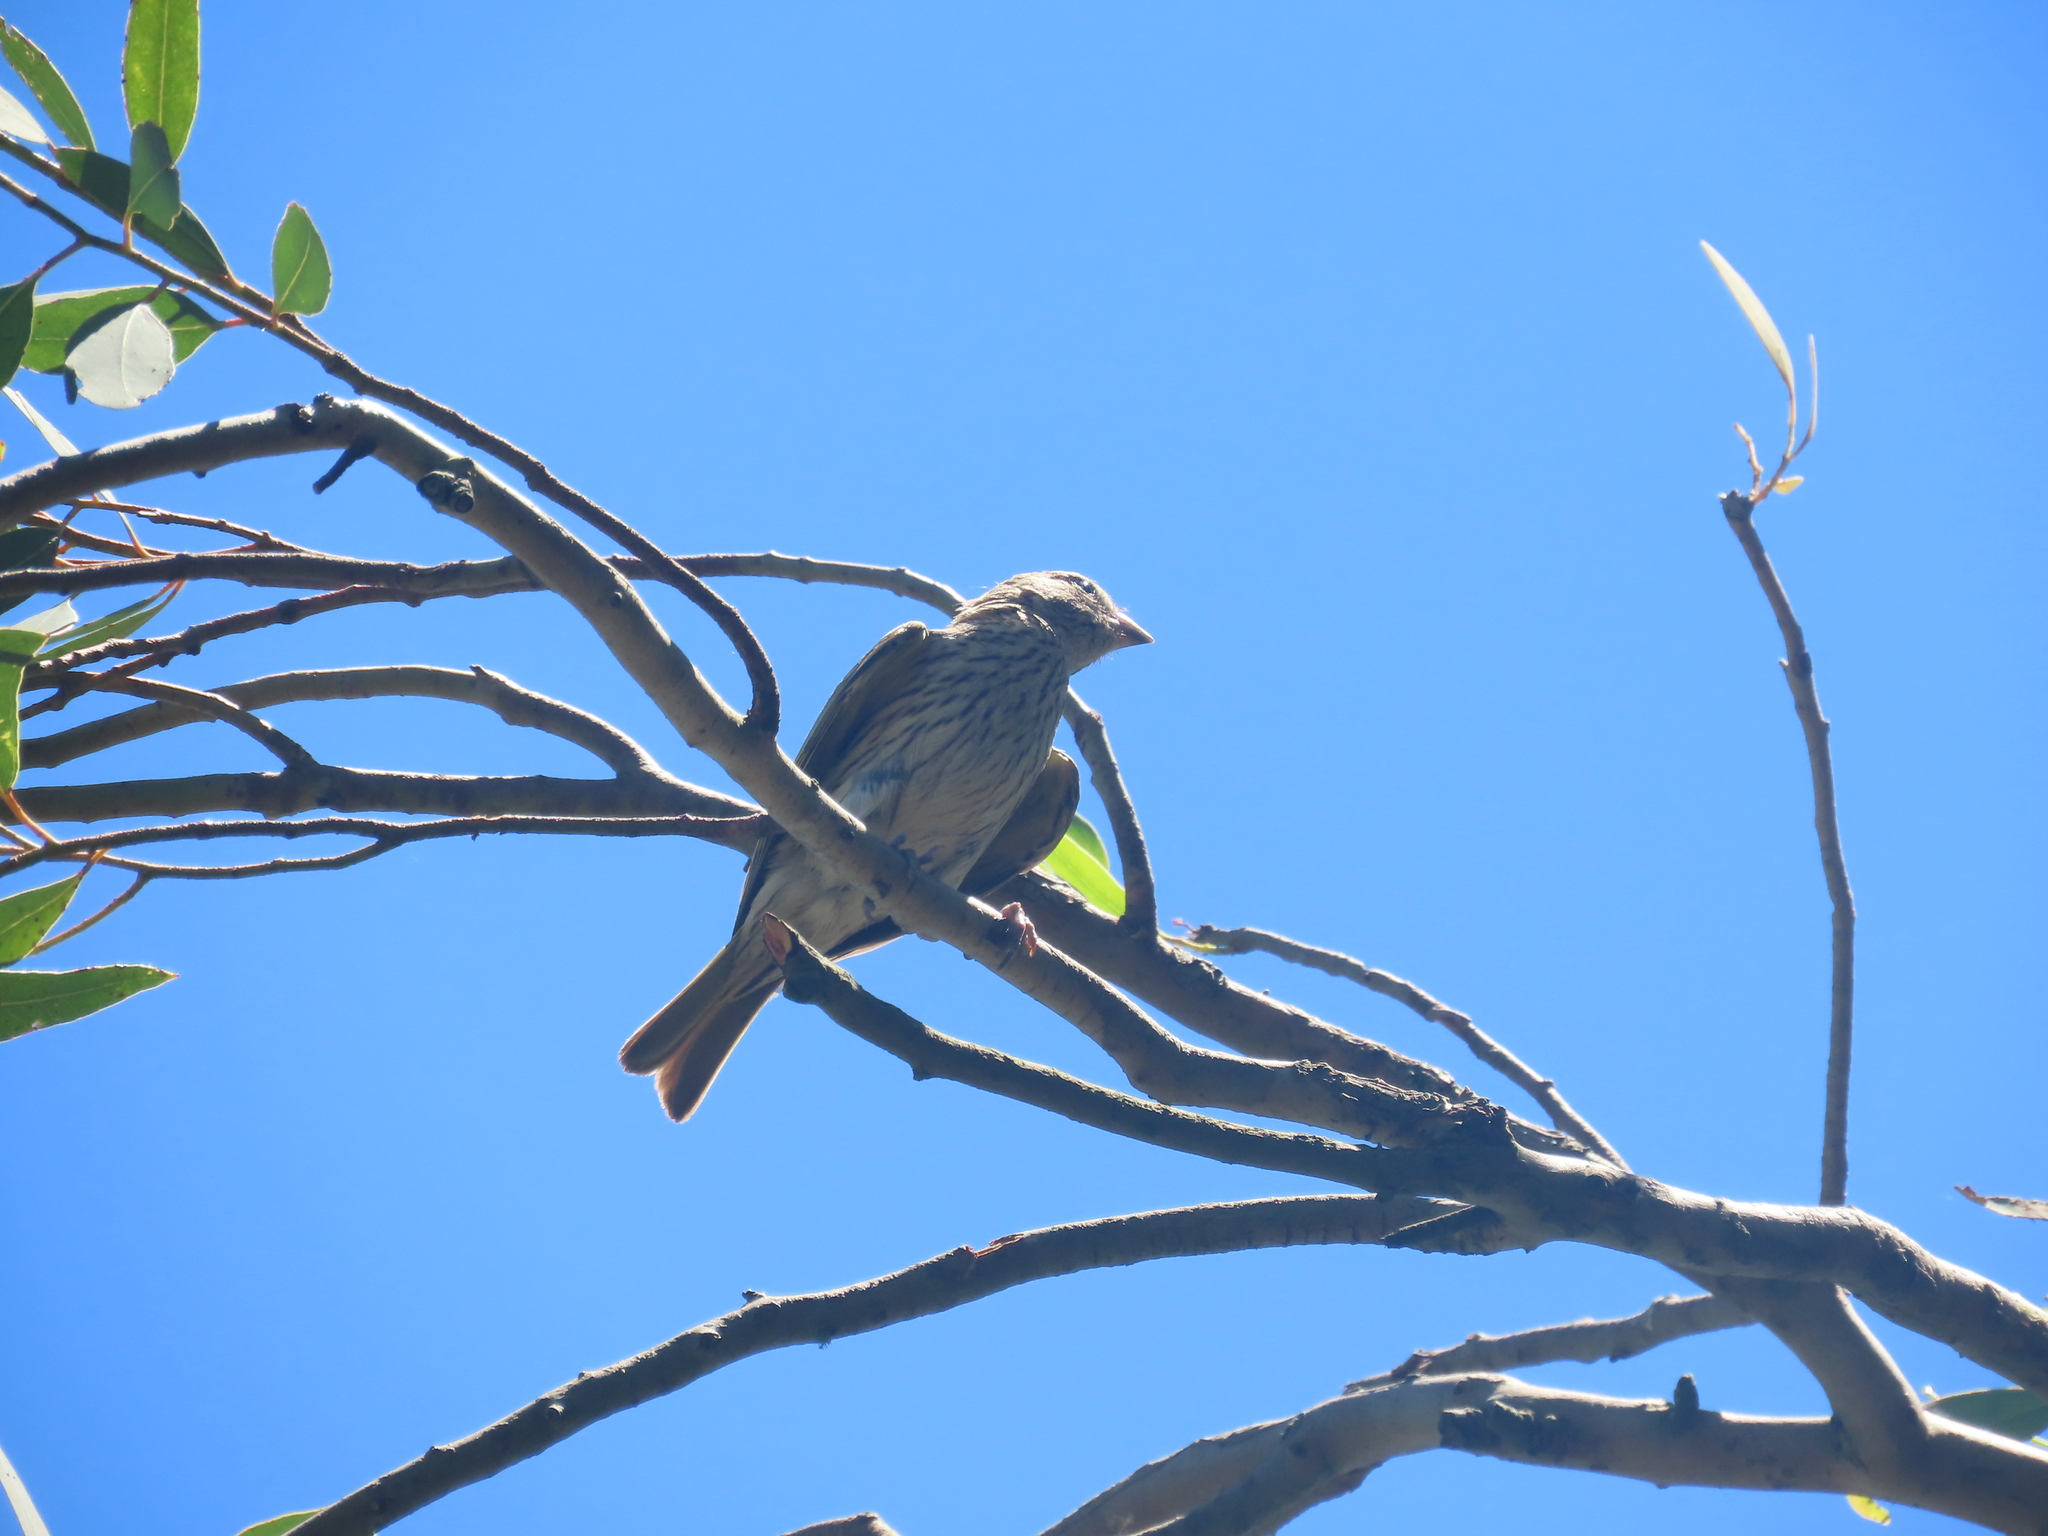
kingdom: Animalia
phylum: Chordata
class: Aves
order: Passeriformes
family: Thraupidae
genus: Sicalis
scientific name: Sicalis flaveola
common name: Saffron finch
